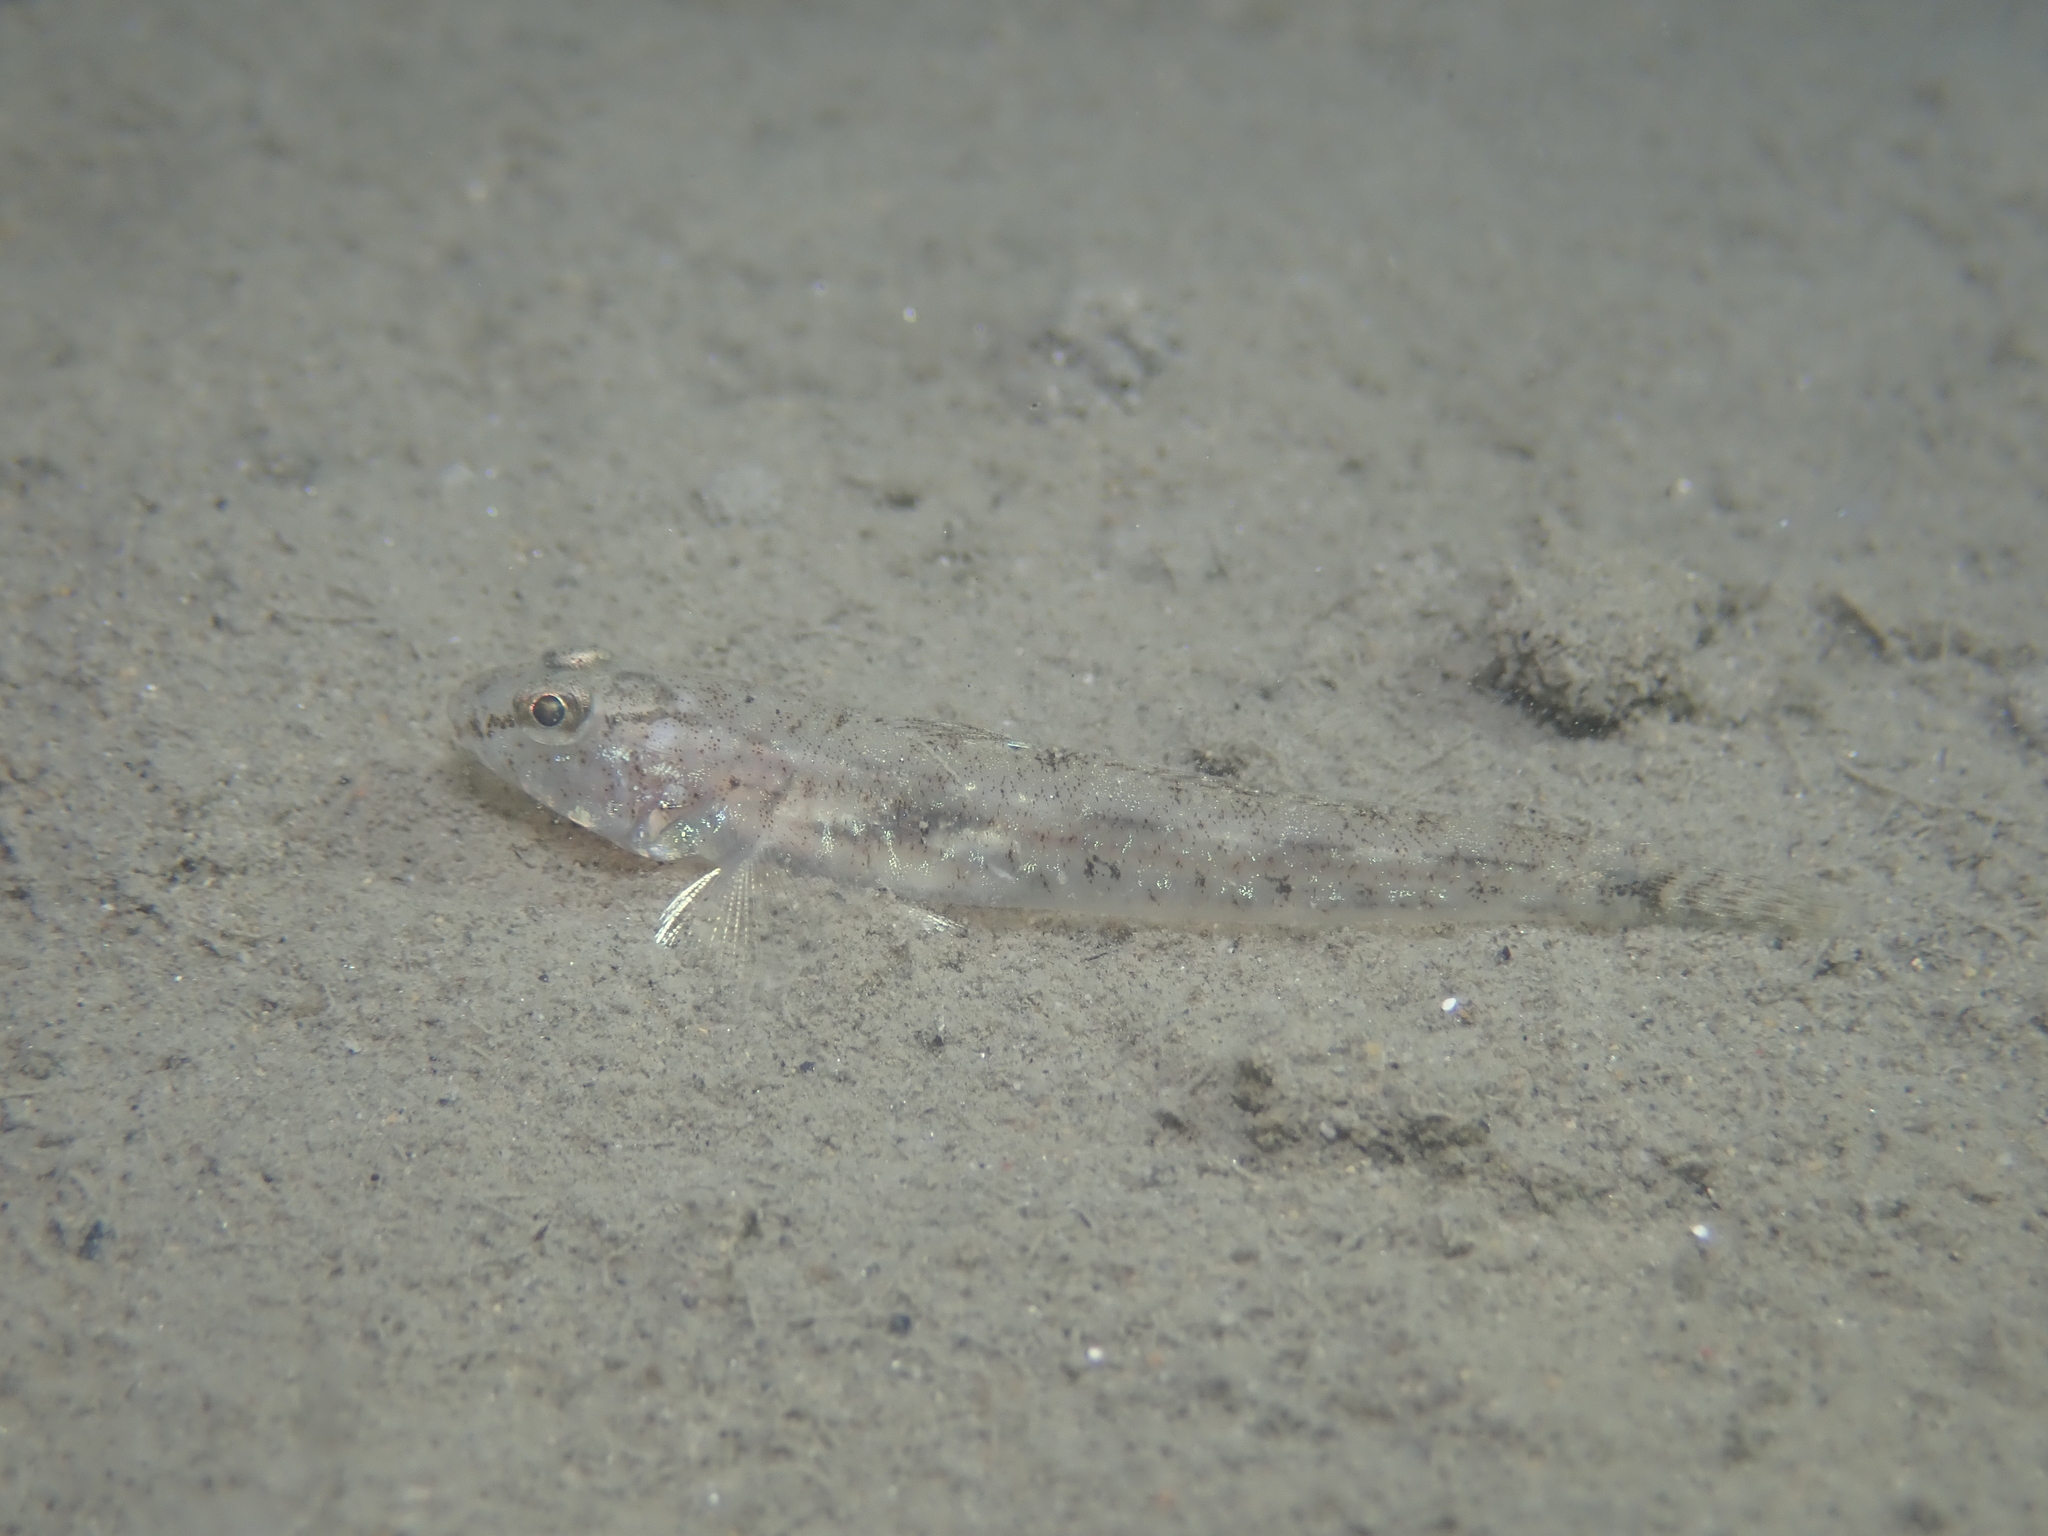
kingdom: Animalia
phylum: Chordata
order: Perciformes
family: Gobiidae
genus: Pomatoschistus
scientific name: Pomatoschistus minutus
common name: Sand goby
